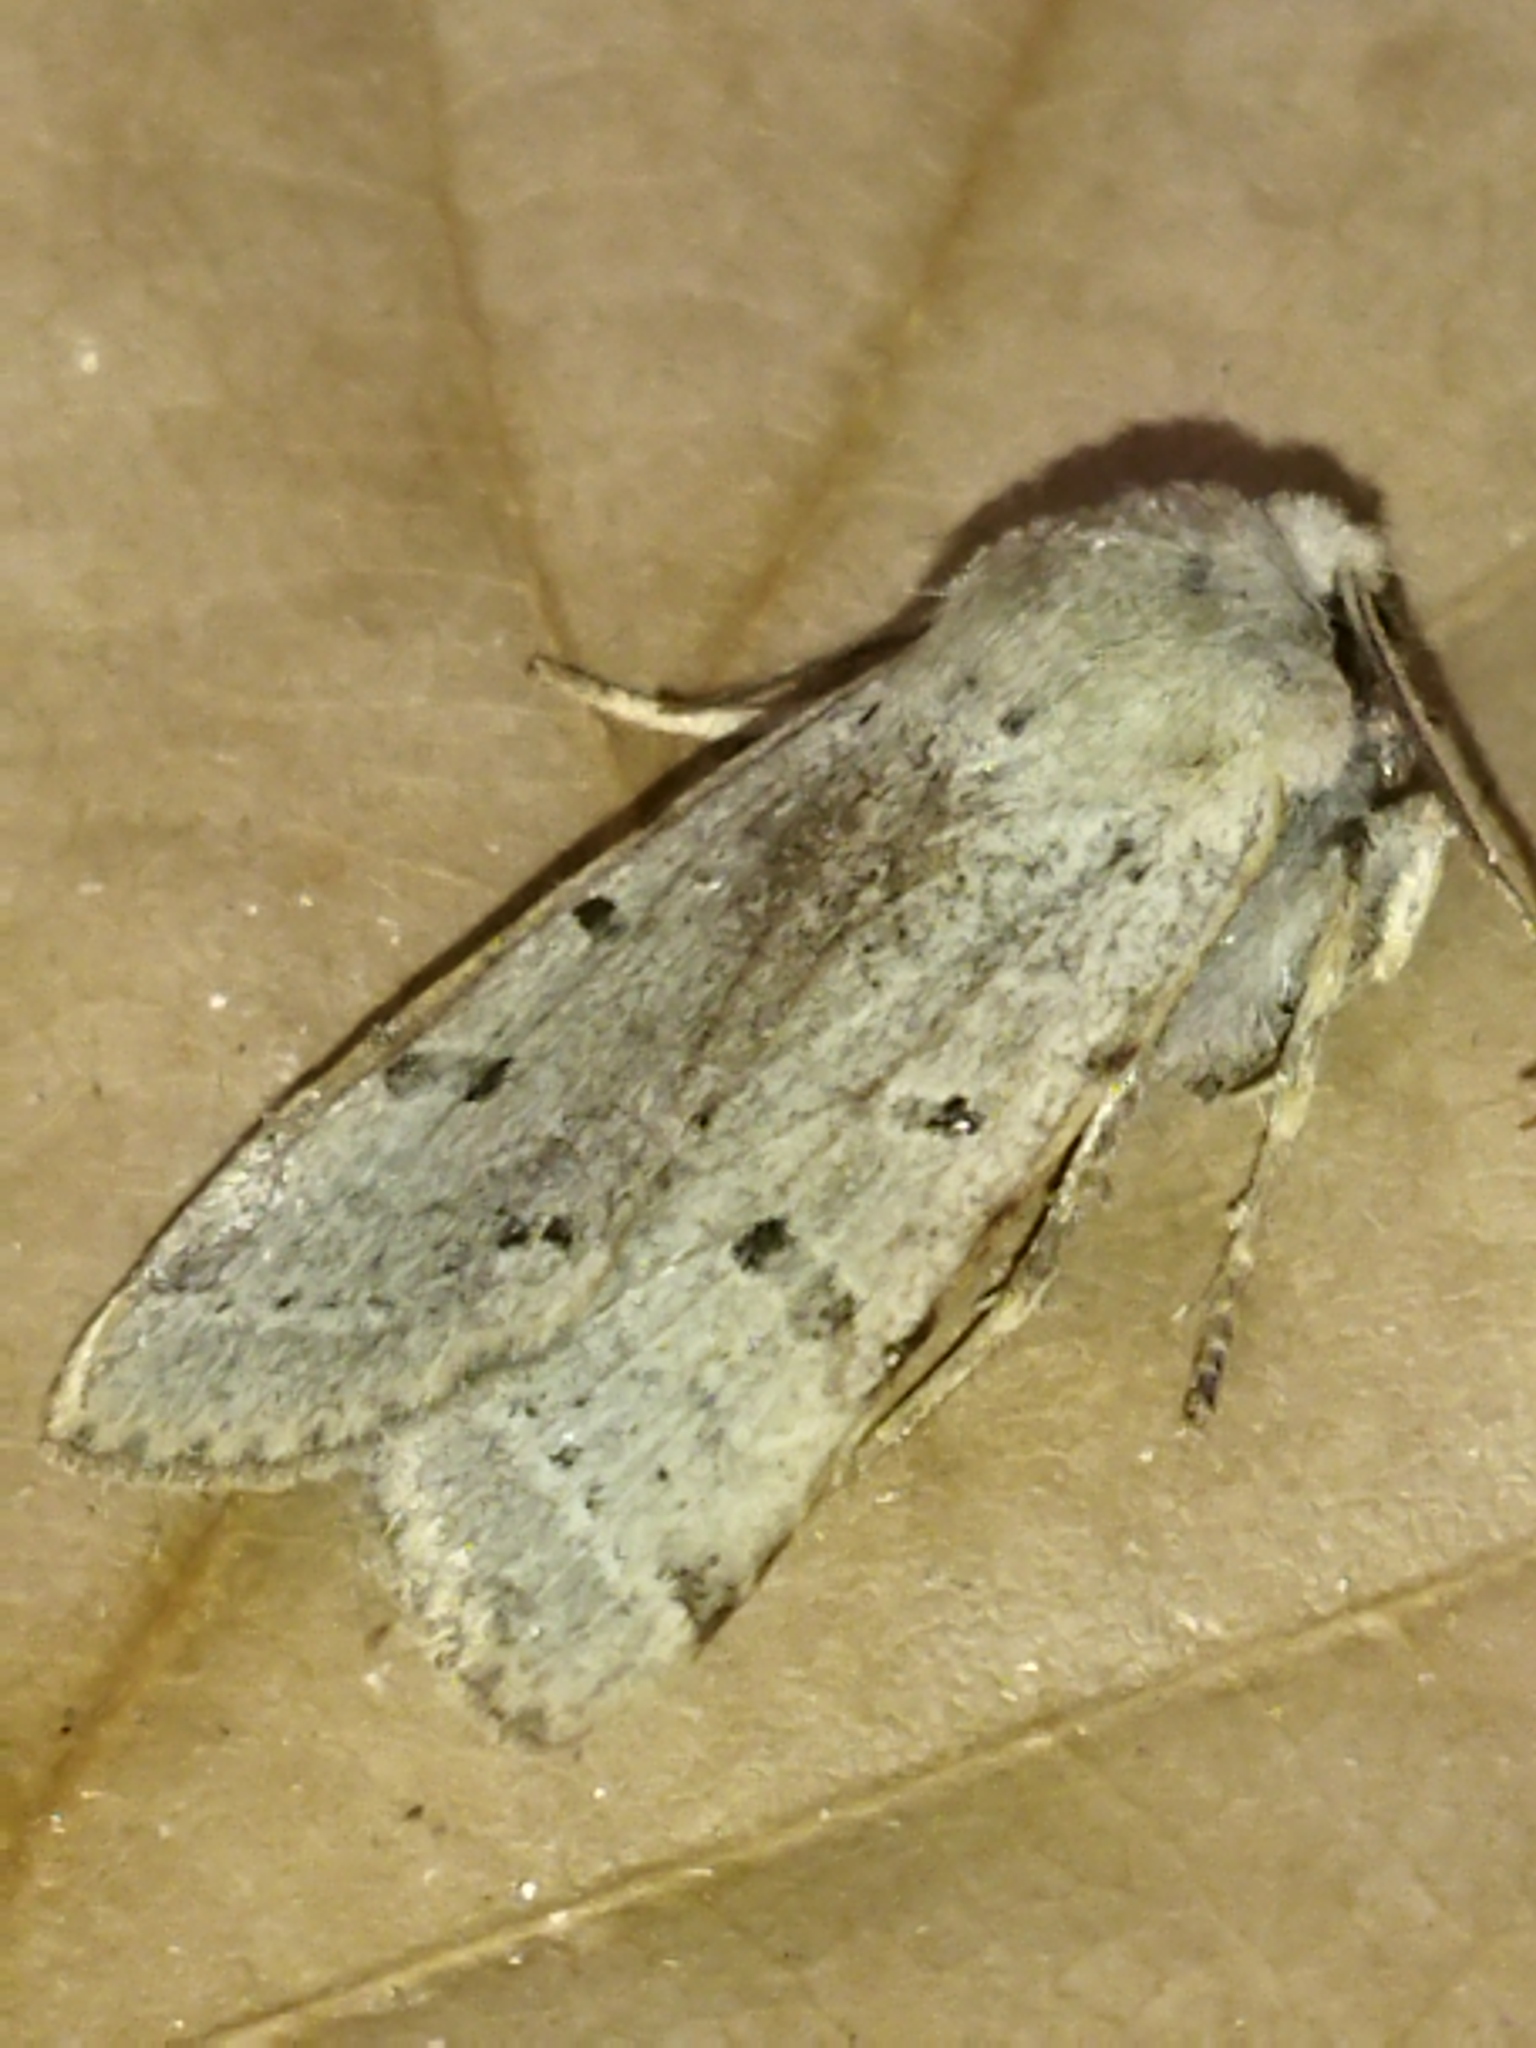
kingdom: Animalia
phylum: Arthropoda
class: Insecta
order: Lepidoptera
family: Noctuidae
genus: Agrochola
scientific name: Agrochola lychnidis
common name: Beaded chestnut
